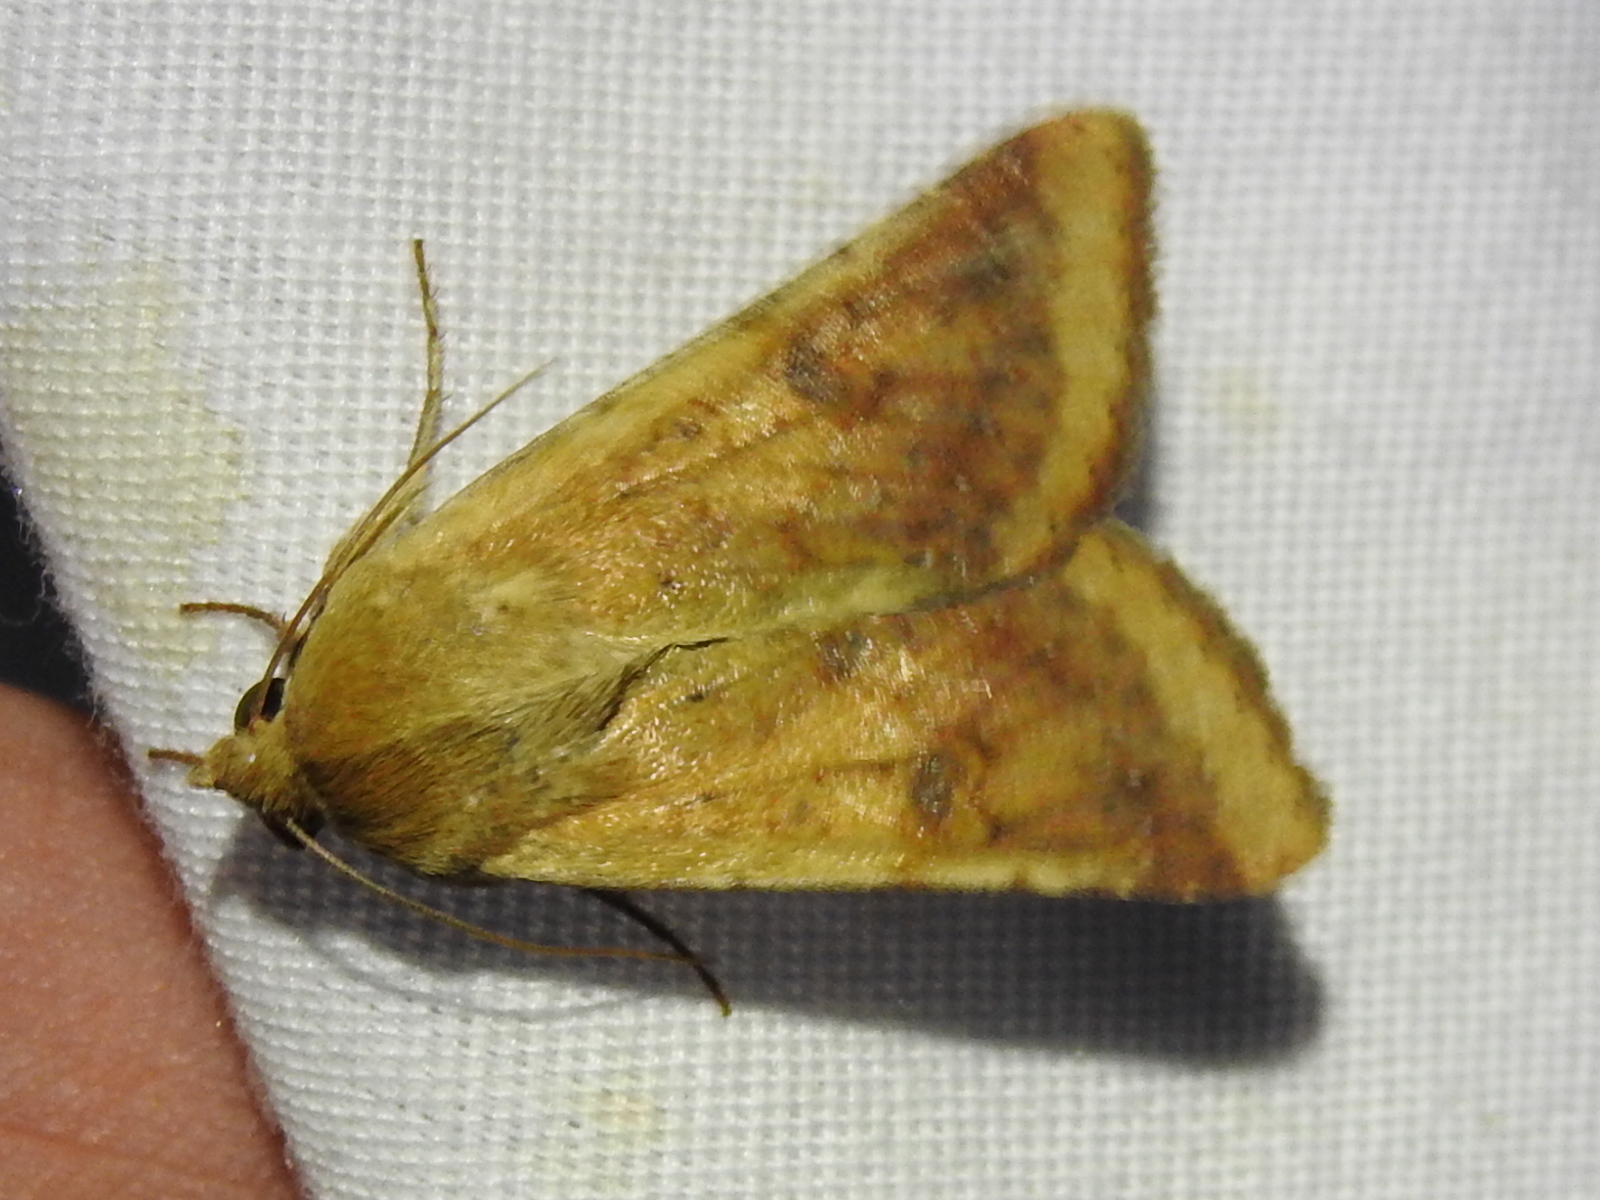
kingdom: Animalia
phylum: Arthropoda
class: Insecta
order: Lepidoptera
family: Noctuidae
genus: Helicoverpa
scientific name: Helicoverpa zea
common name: Bollworm
